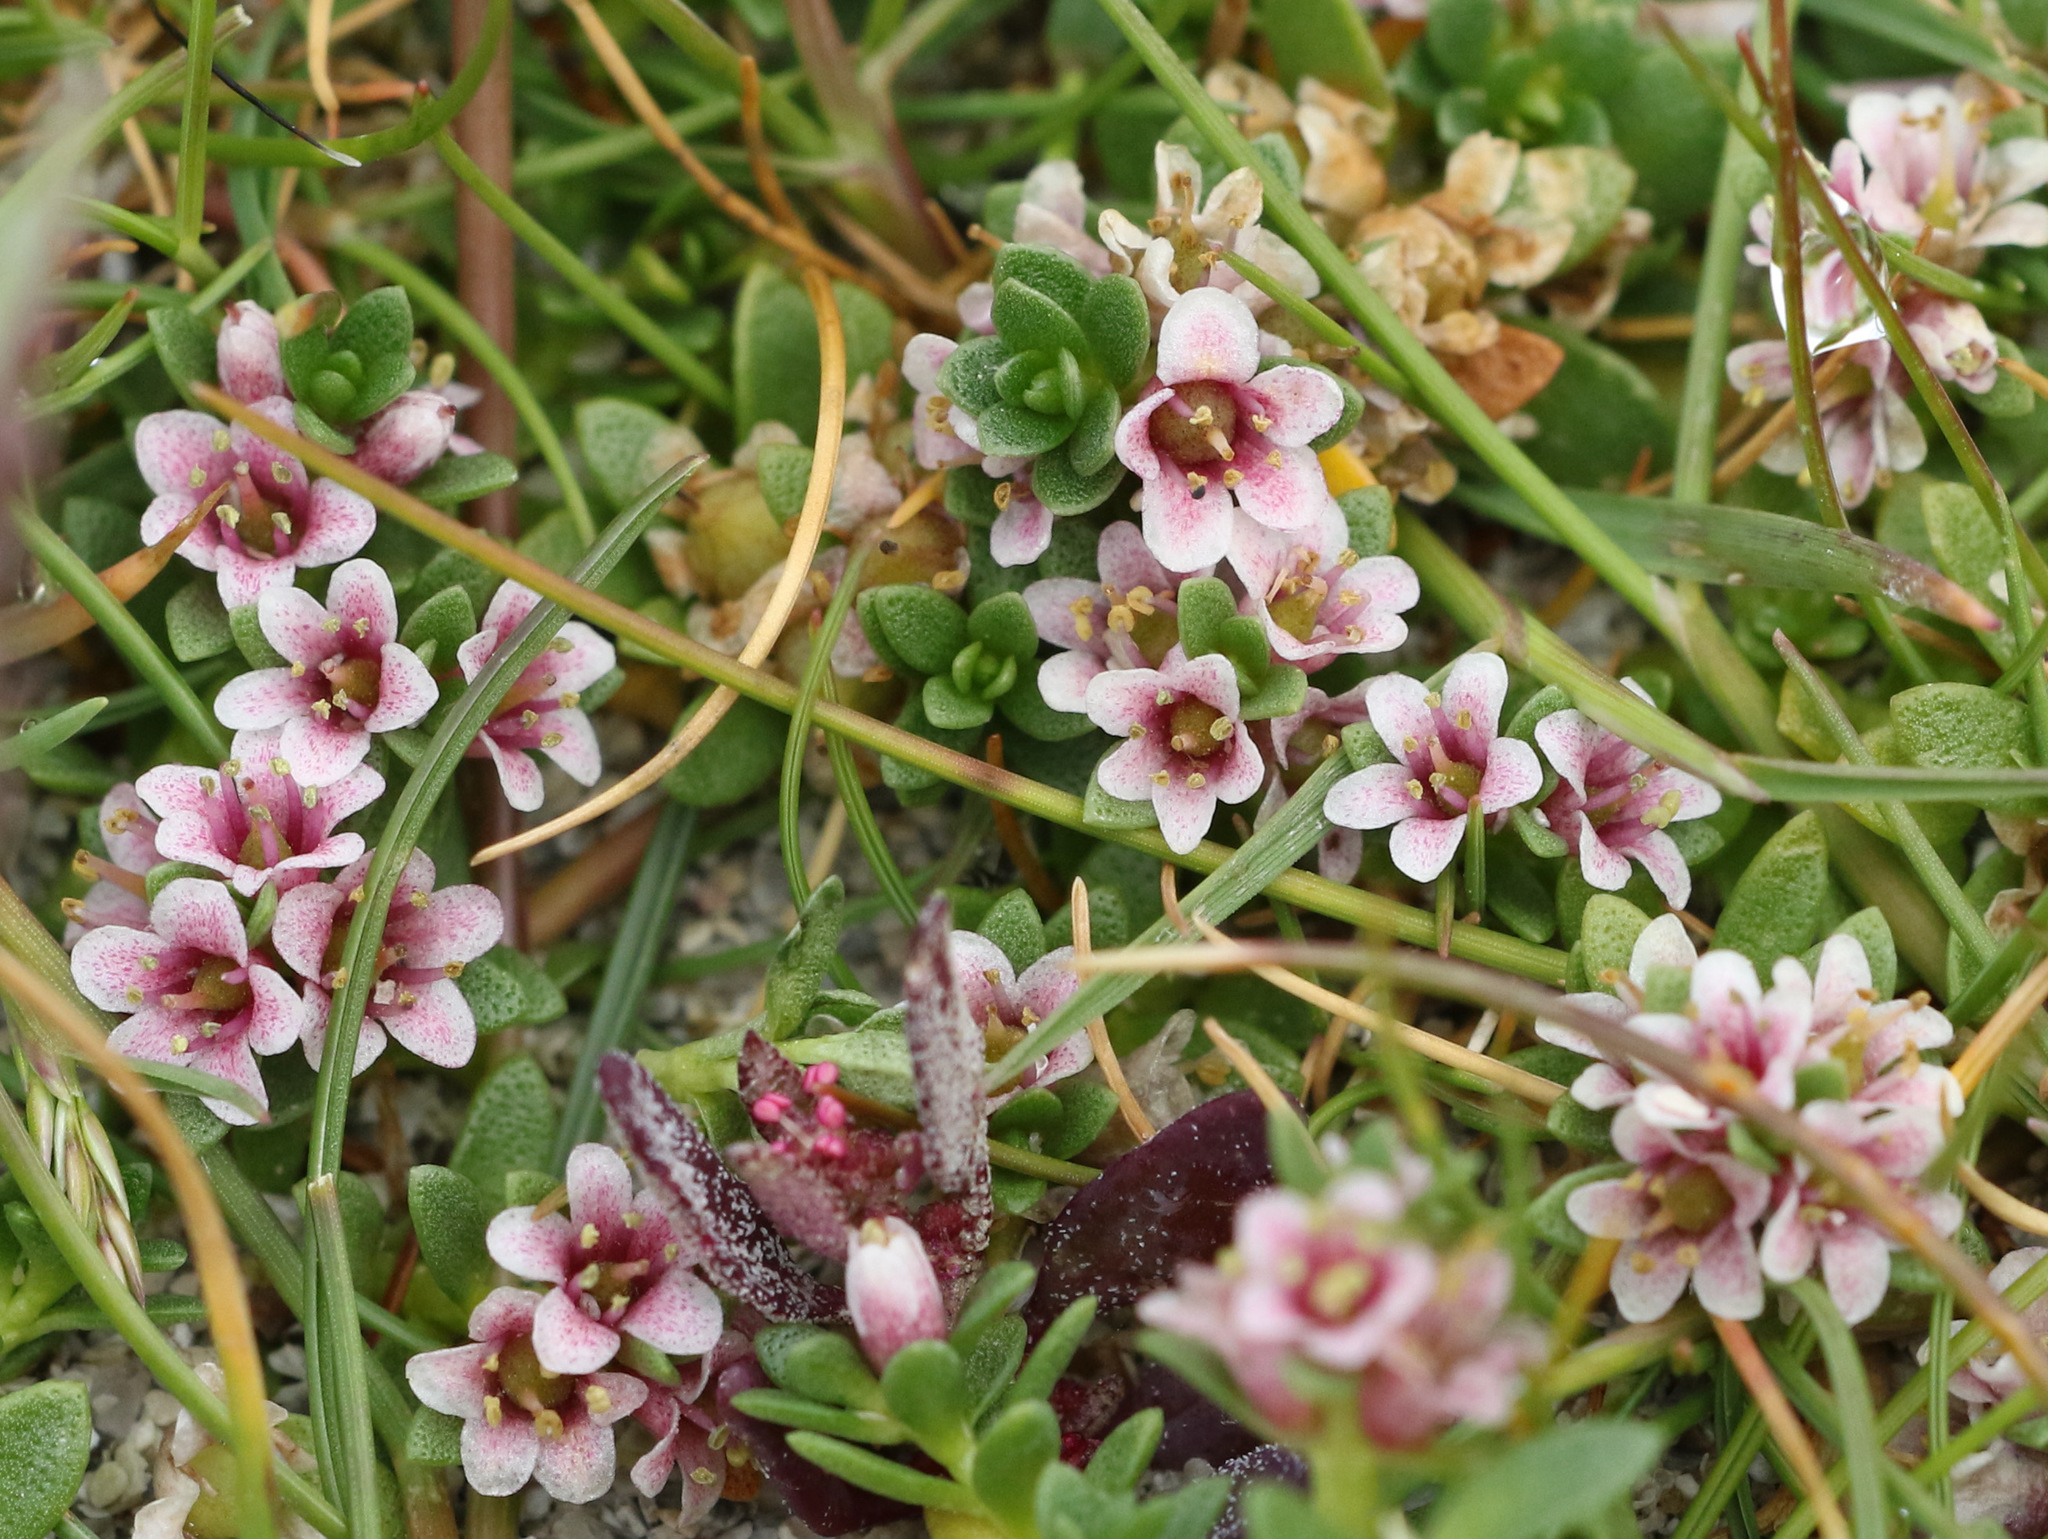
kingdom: Plantae
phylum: Tracheophyta
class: Magnoliopsida
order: Ericales
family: Primulaceae
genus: Lysimachia
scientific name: Lysimachia maritima
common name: Sea milkwort
